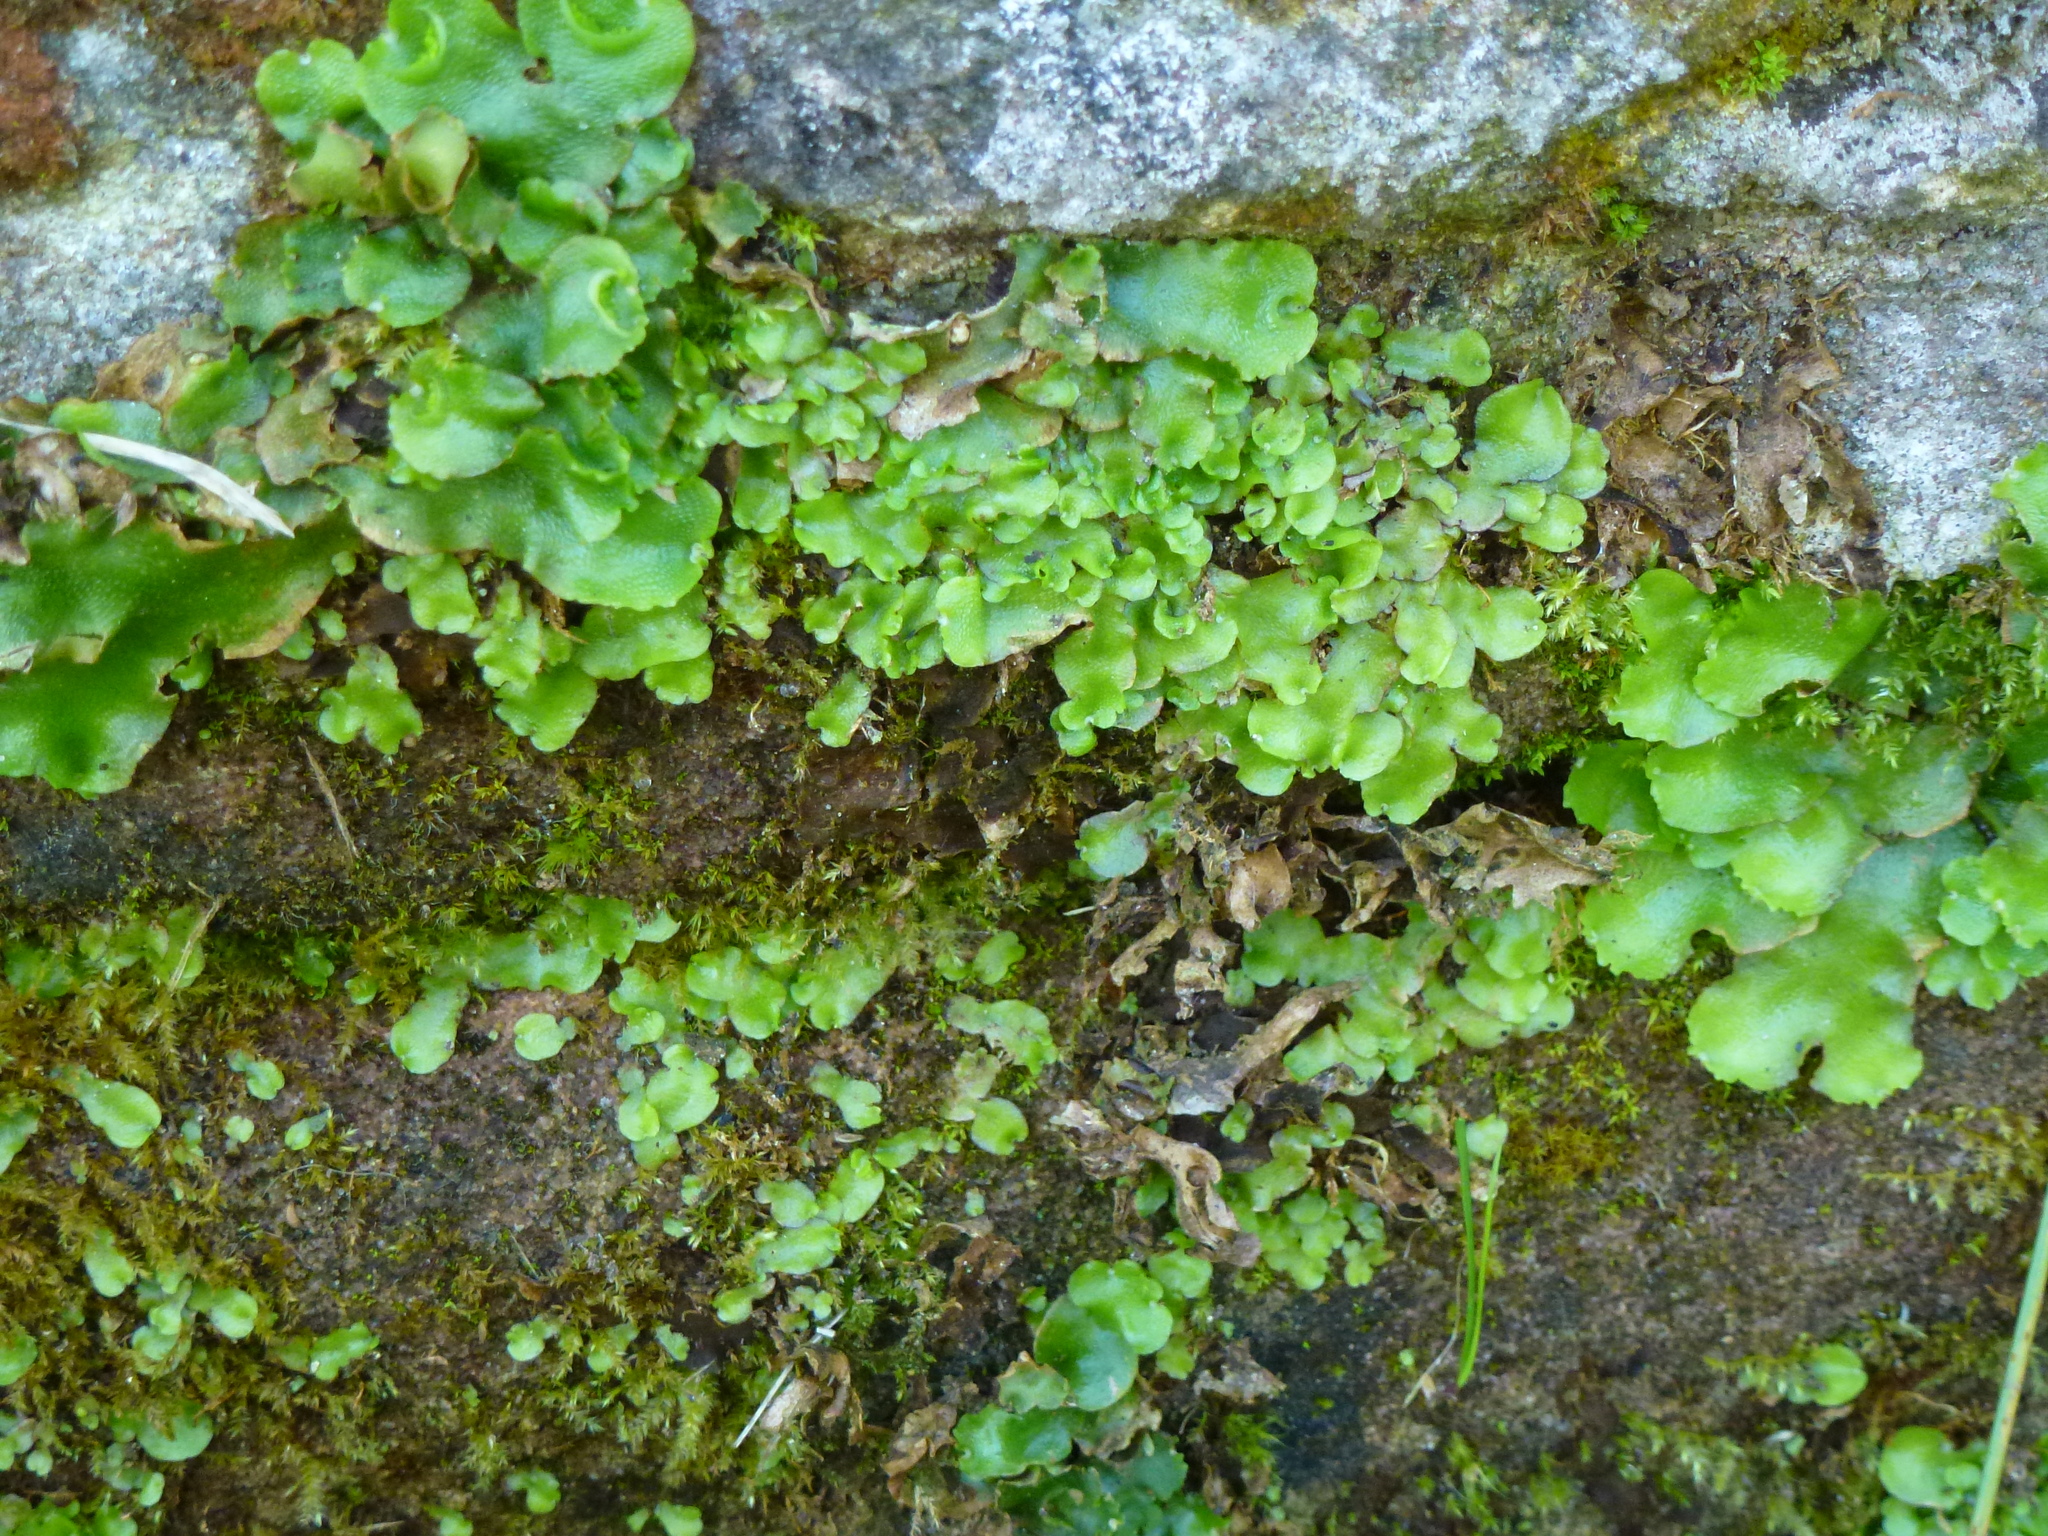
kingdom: Plantae
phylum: Marchantiophyta
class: Marchantiopsida
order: Lunulariales
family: Lunulariaceae
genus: Lunularia
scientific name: Lunularia cruciata
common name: Crescent-cup liverwort
